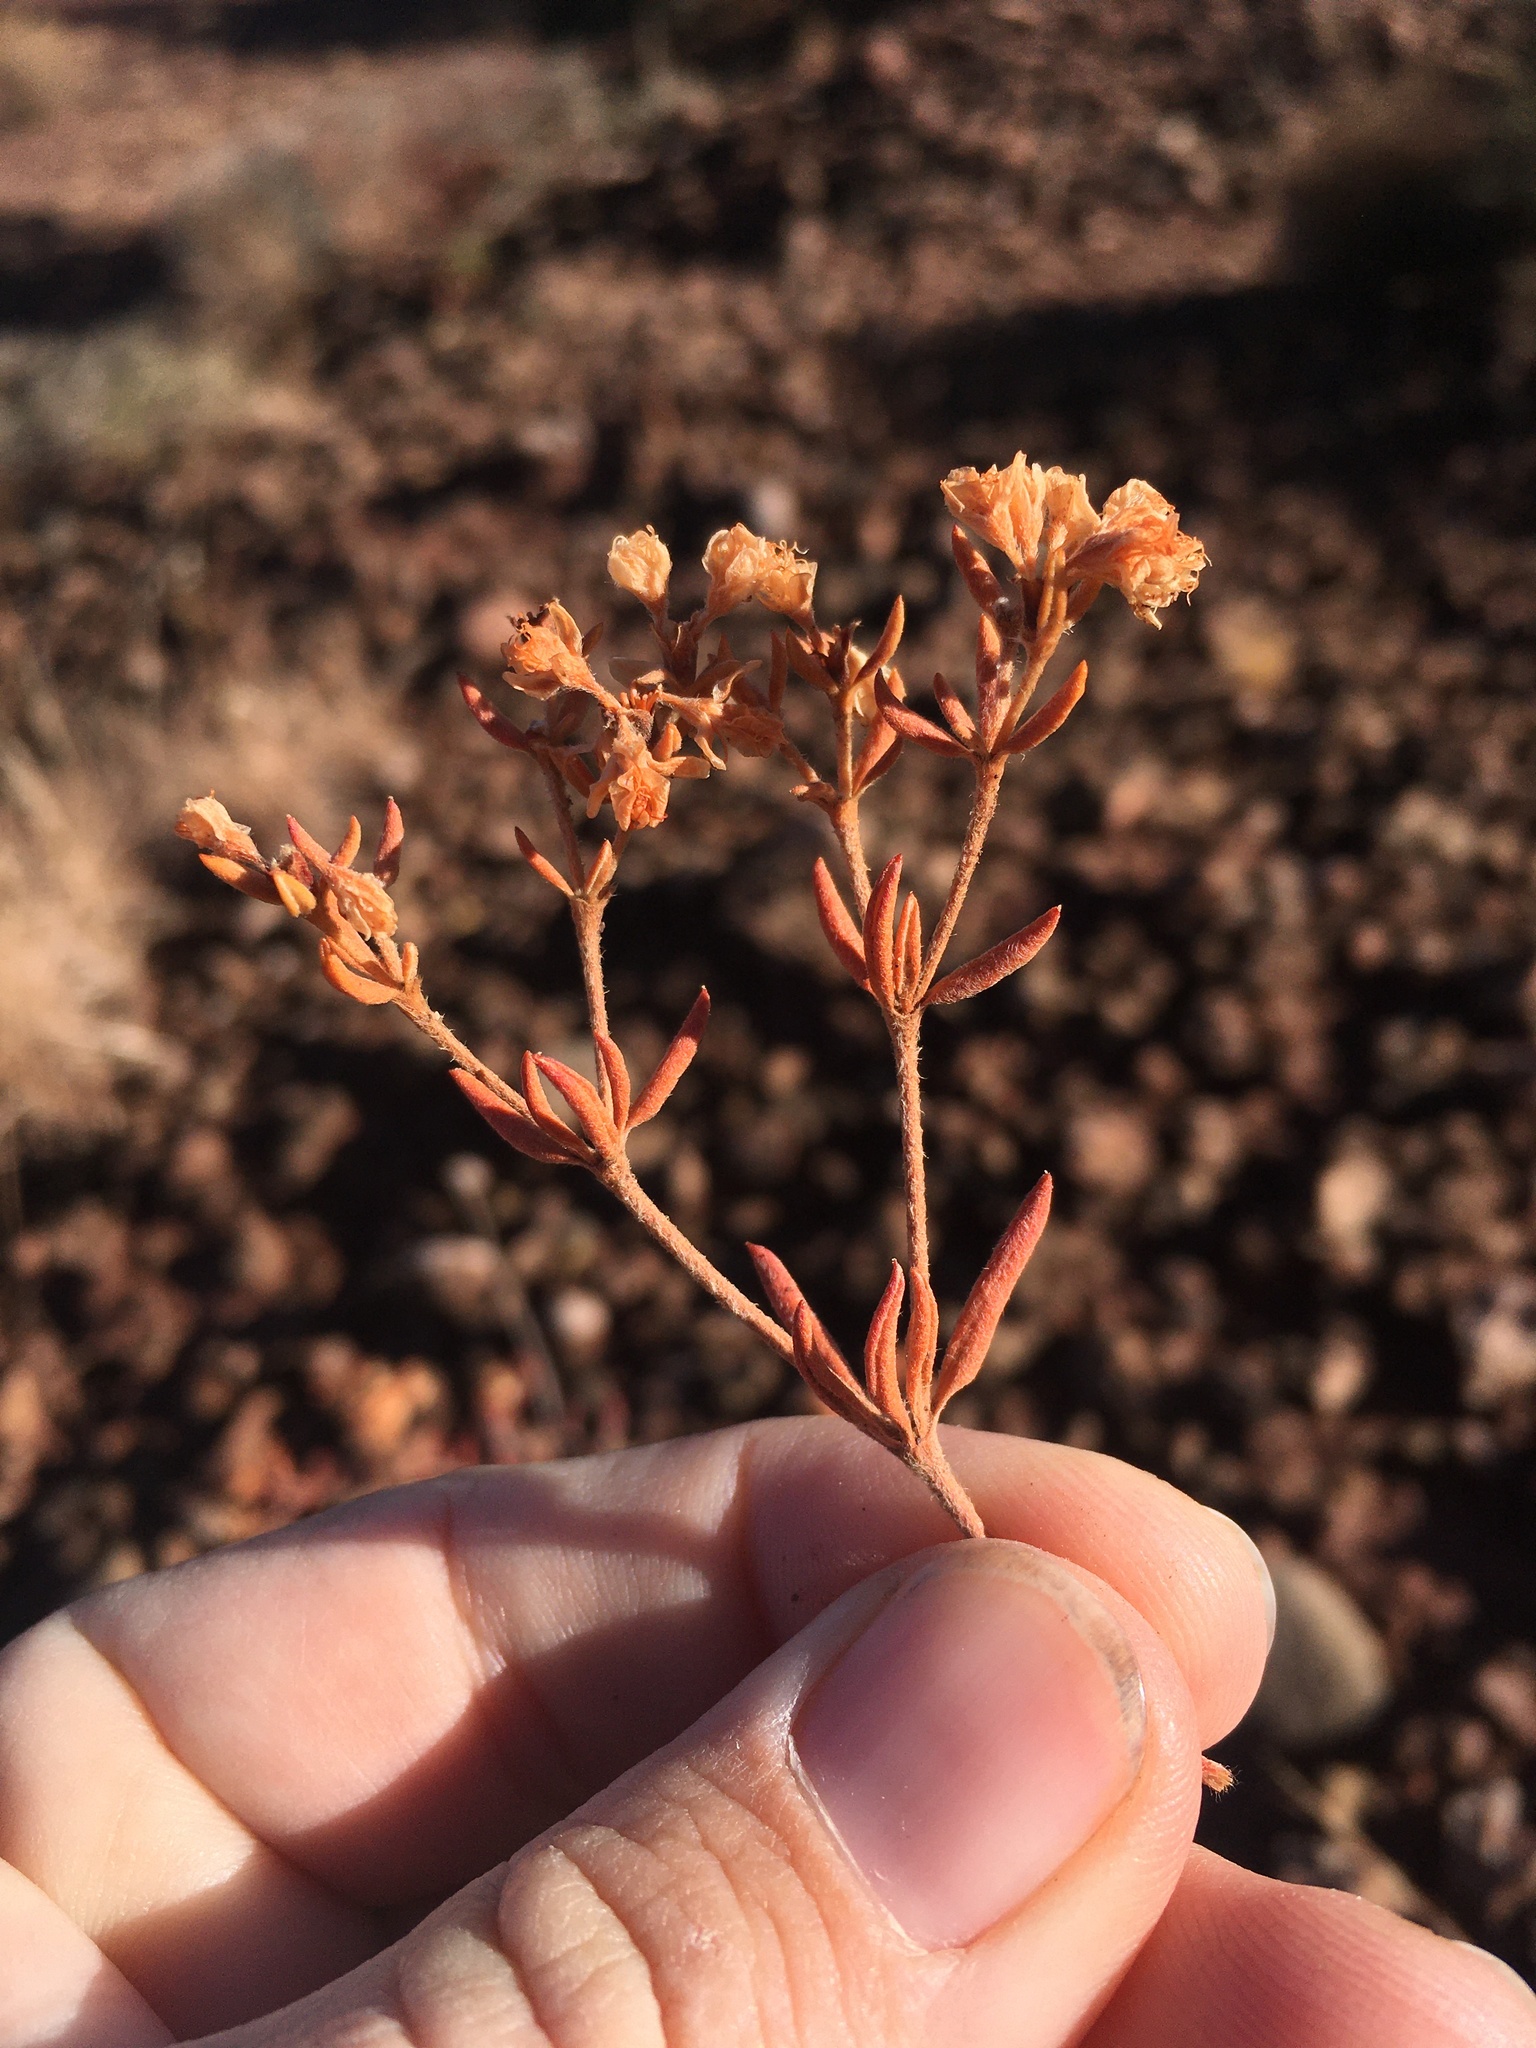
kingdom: Plantae
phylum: Tracheophyta
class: Magnoliopsida
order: Caryophyllales
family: Polygonaceae
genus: Eriogonum
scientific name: Eriogonum jamesii
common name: Antelope-sage
